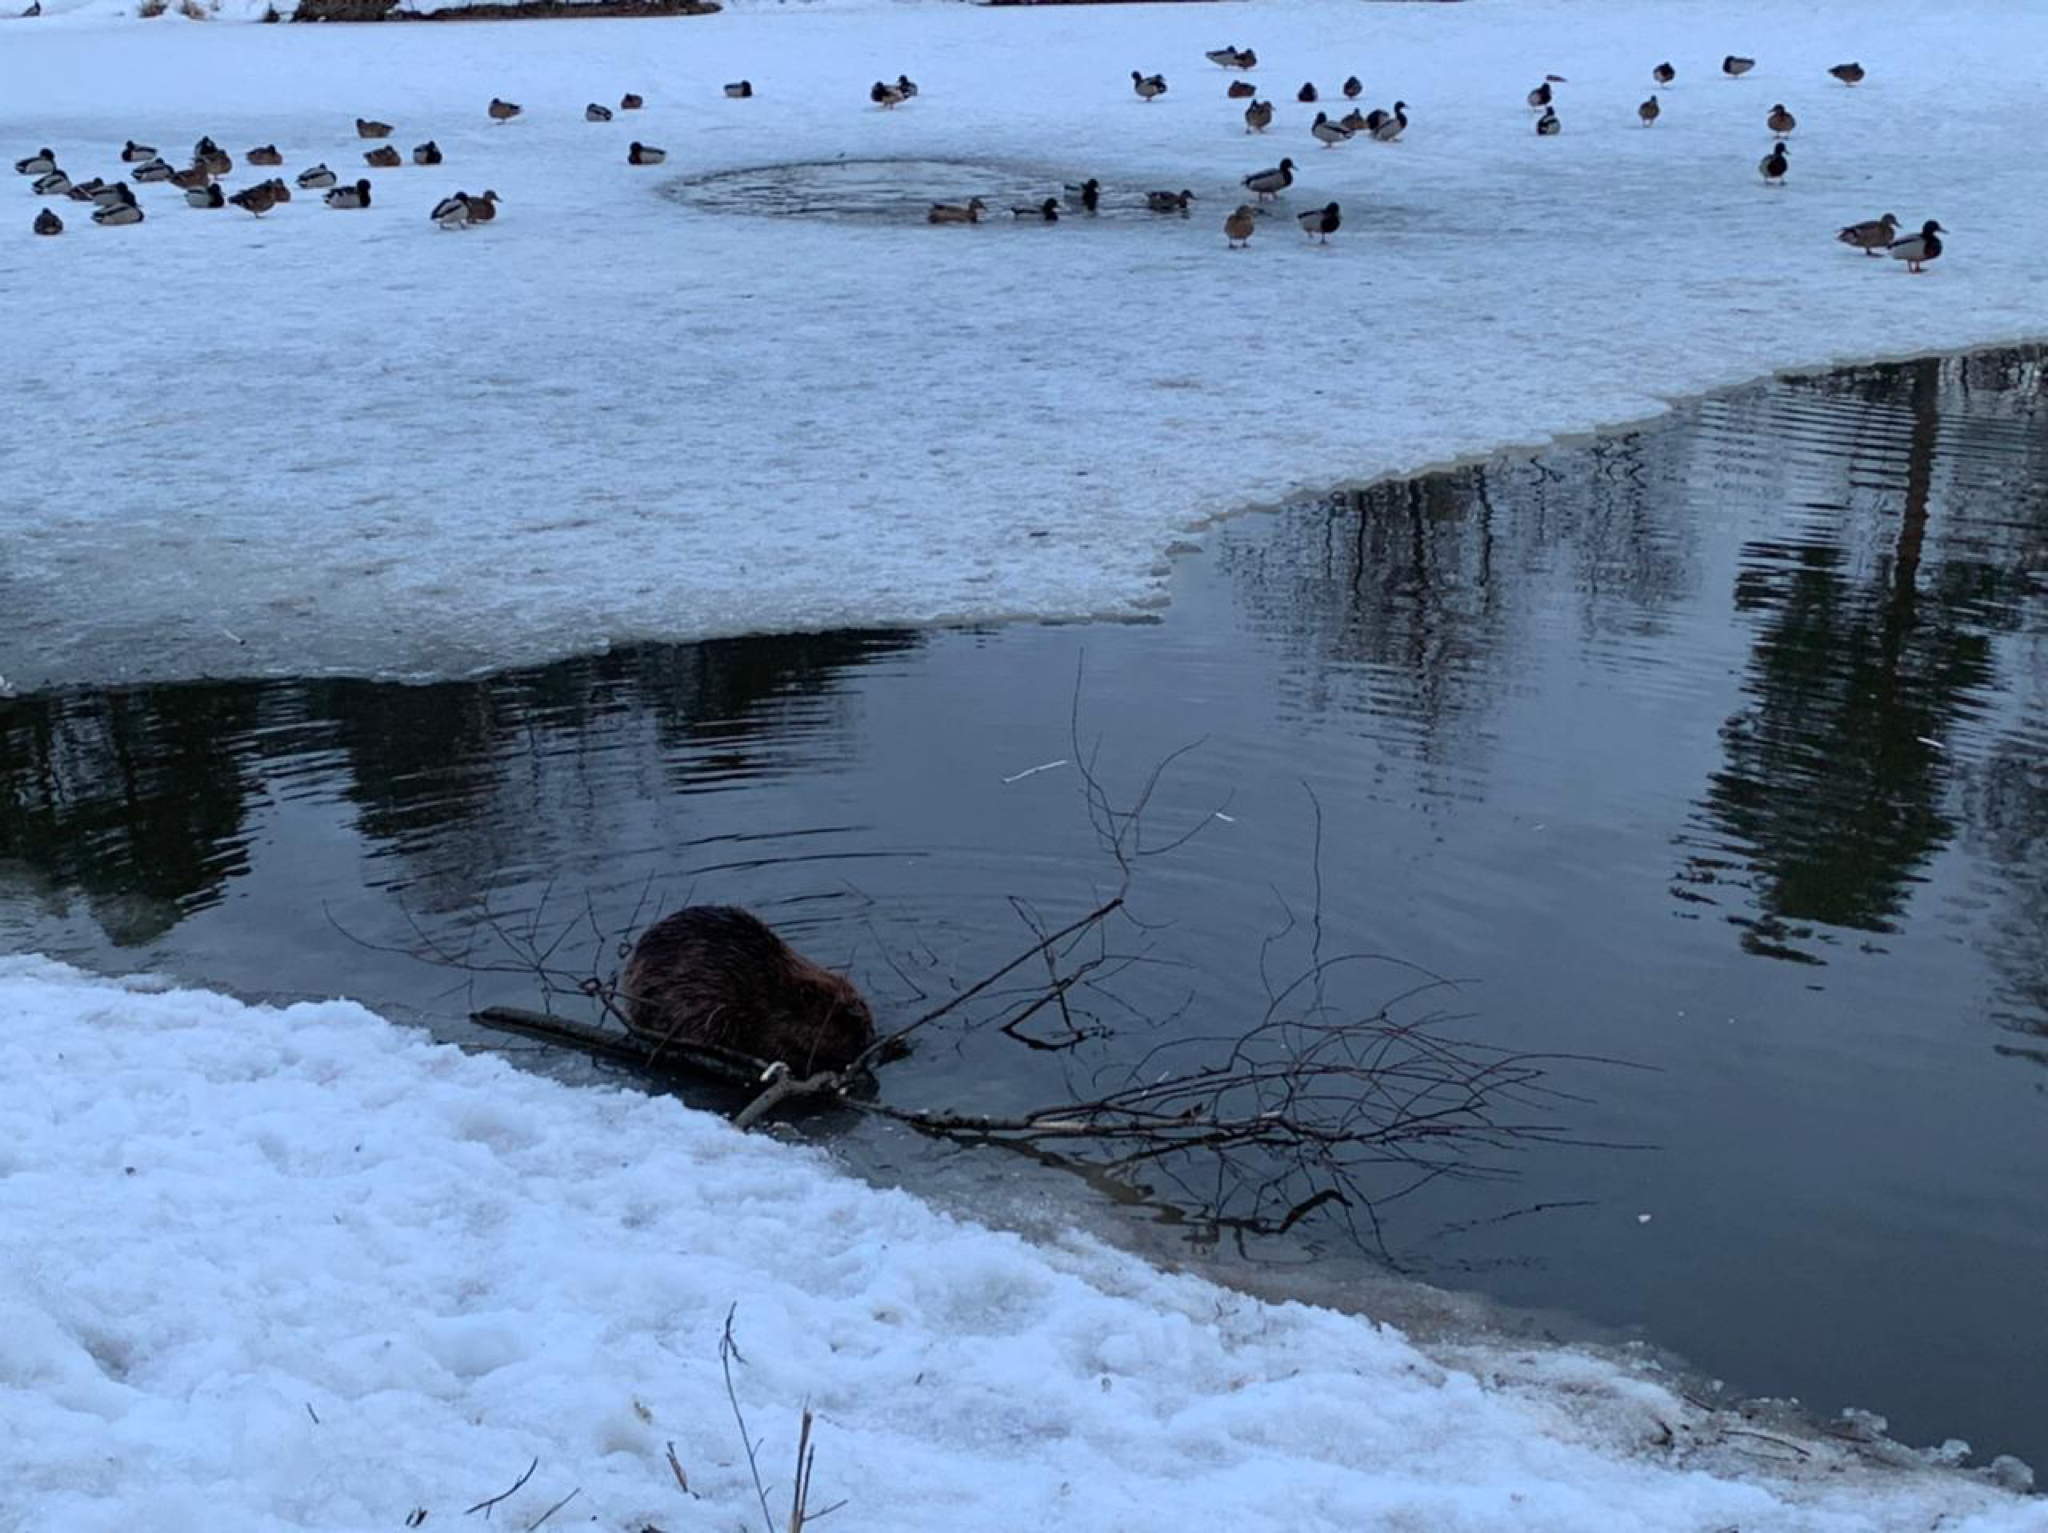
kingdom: Animalia
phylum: Chordata
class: Mammalia
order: Rodentia
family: Castoridae
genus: Castor
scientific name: Castor fiber
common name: Eurasian beaver
